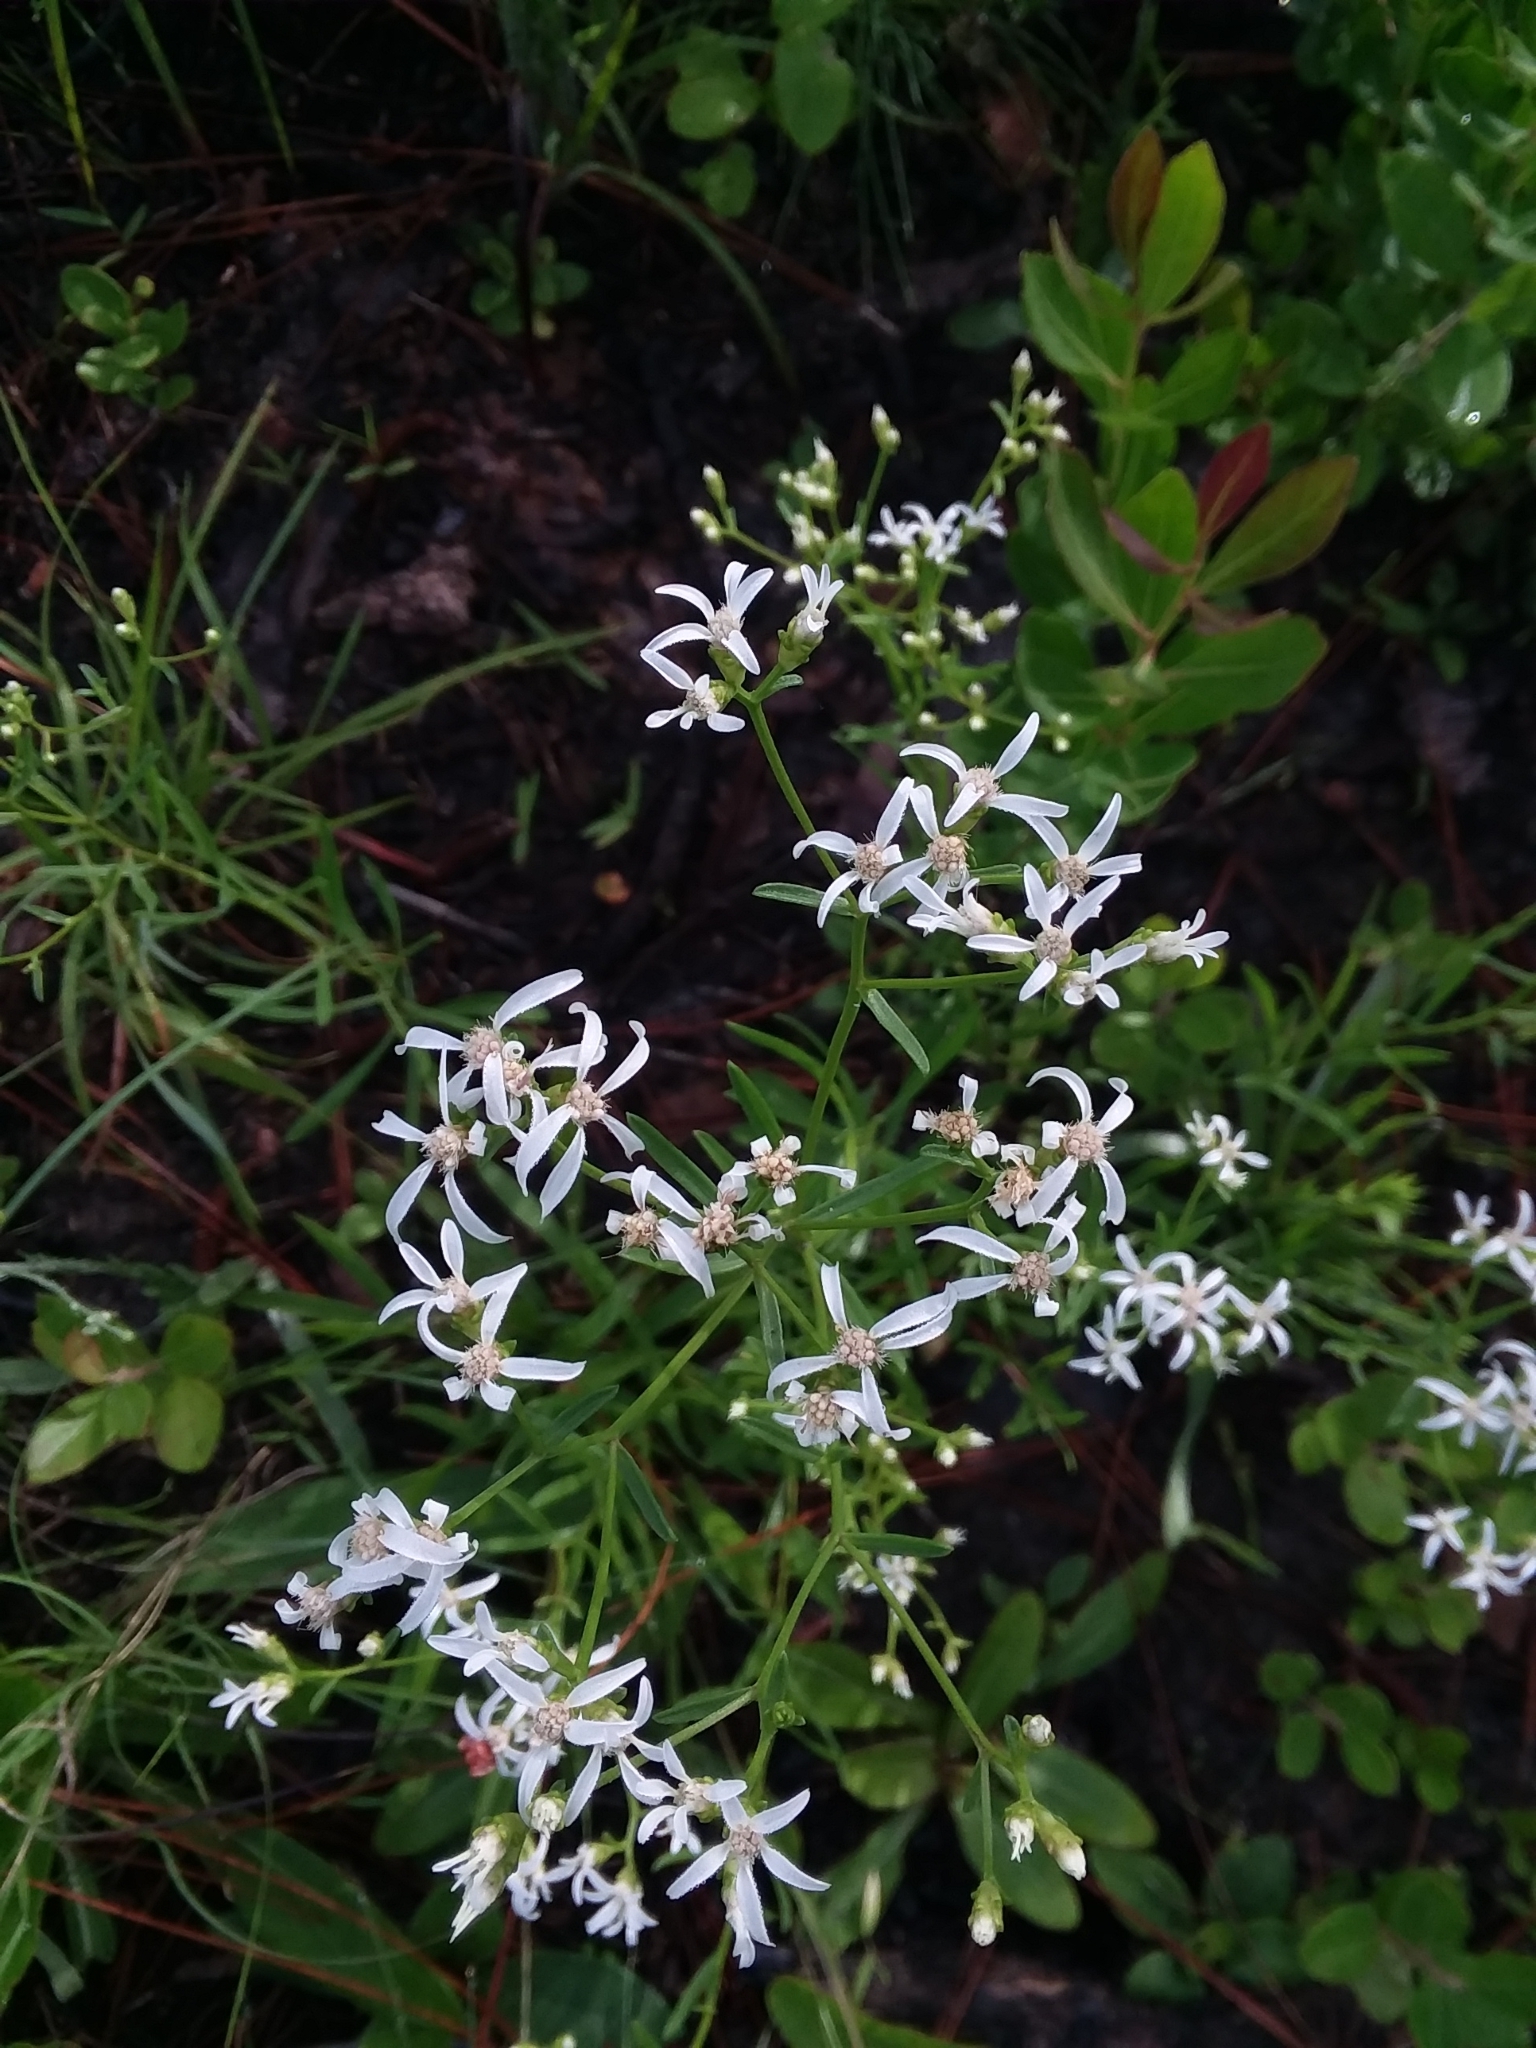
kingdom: Plantae
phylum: Tracheophyta
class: Magnoliopsida
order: Asterales
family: Asteraceae
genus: Sericocarpus
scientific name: Sericocarpus linifolius
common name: Narrow-leaf aster
